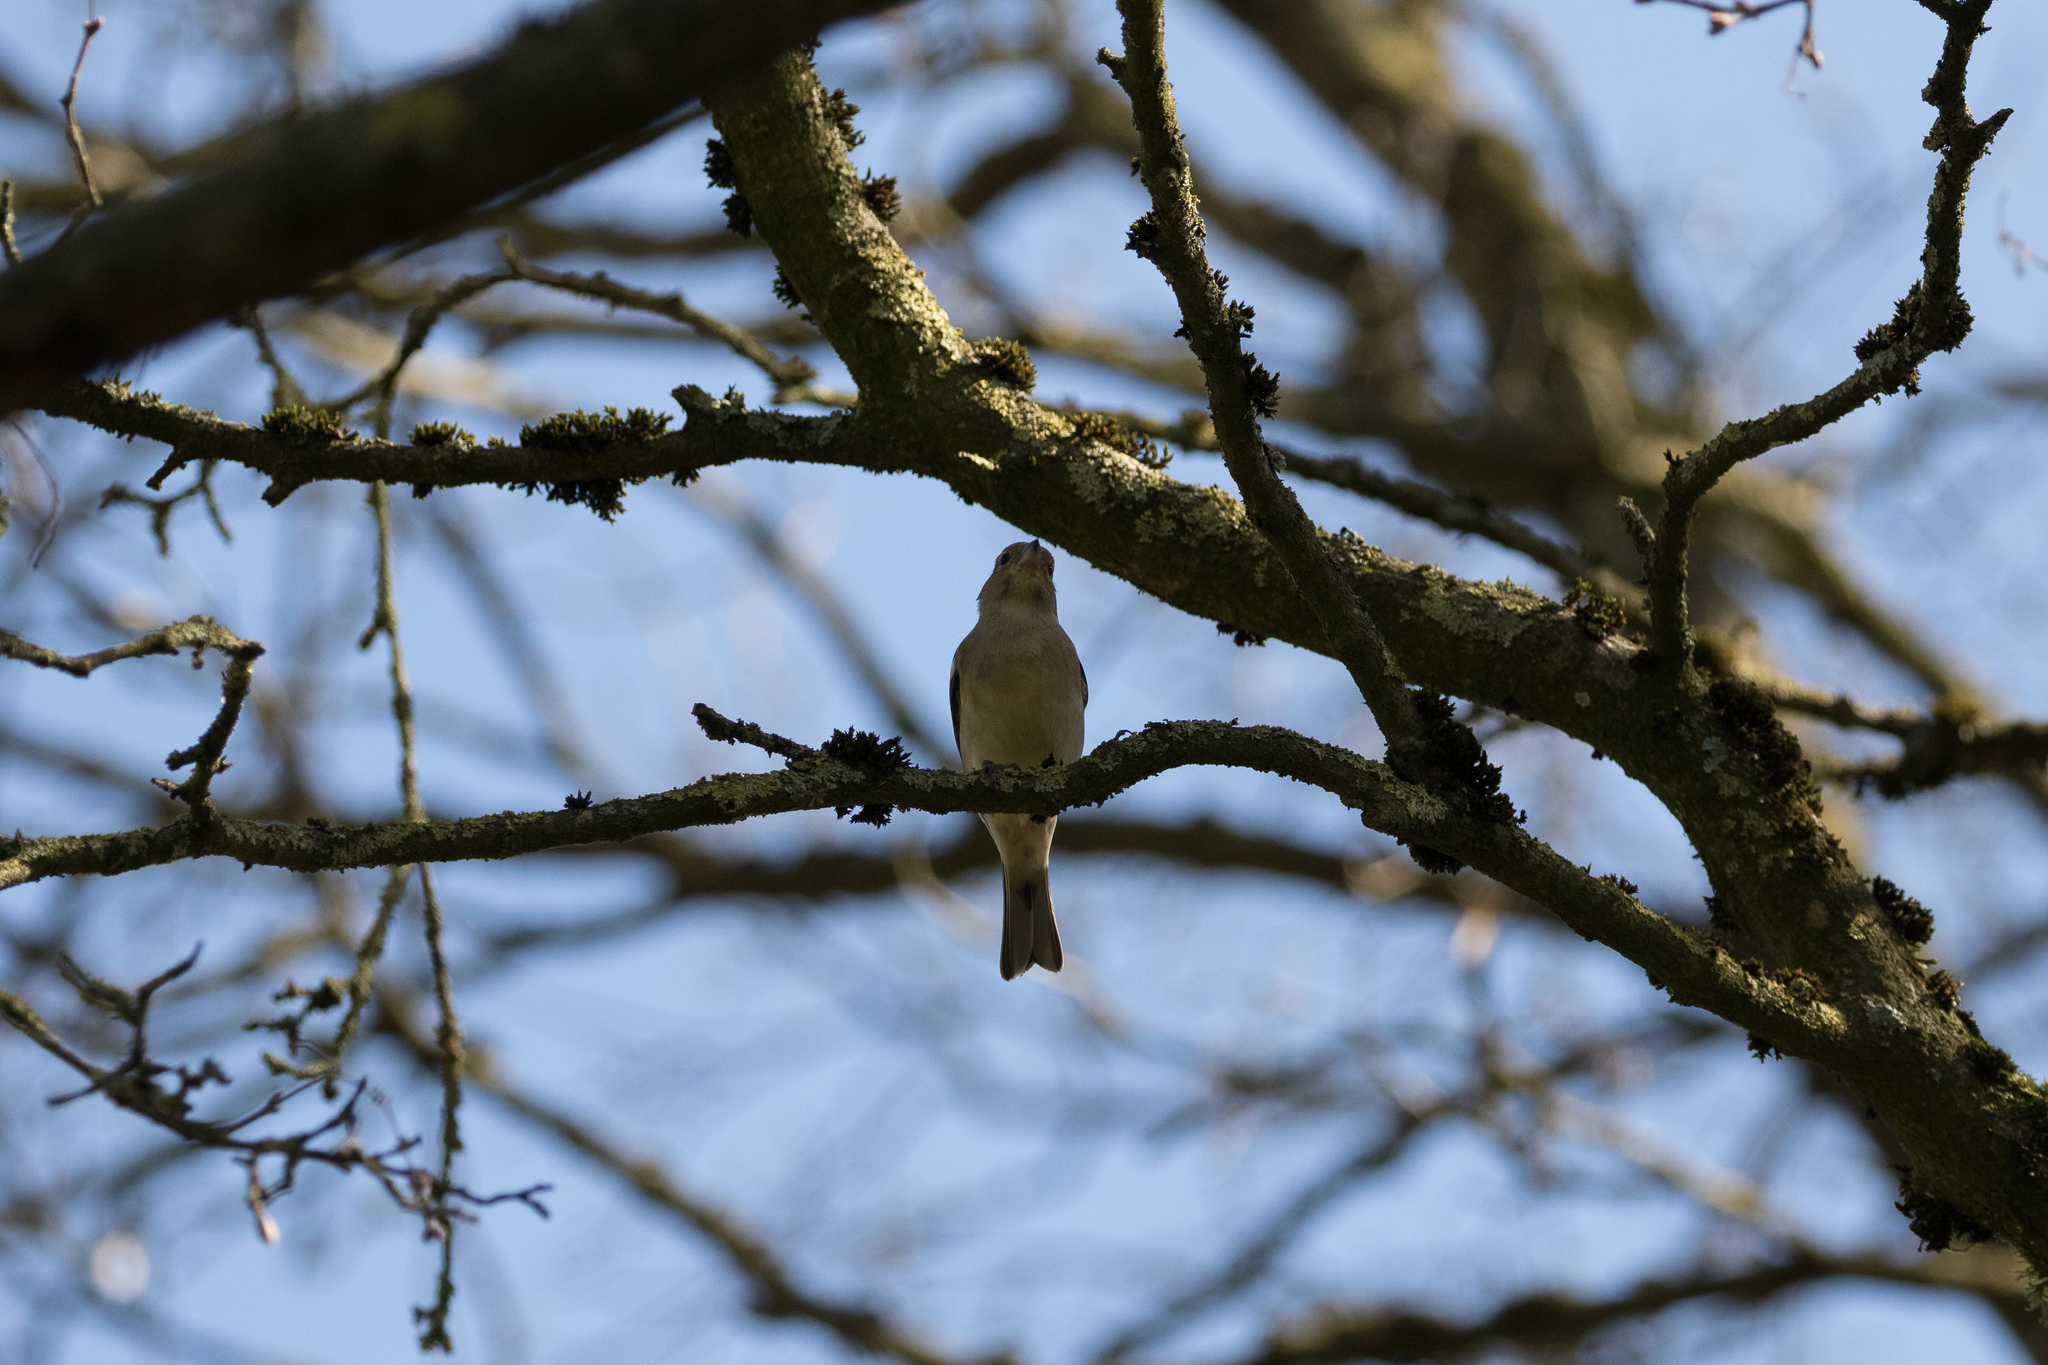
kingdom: Animalia
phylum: Chordata
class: Aves
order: Passeriformes
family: Fringillidae
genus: Fringilla
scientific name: Fringilla coelebs
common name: Common chaffinch
